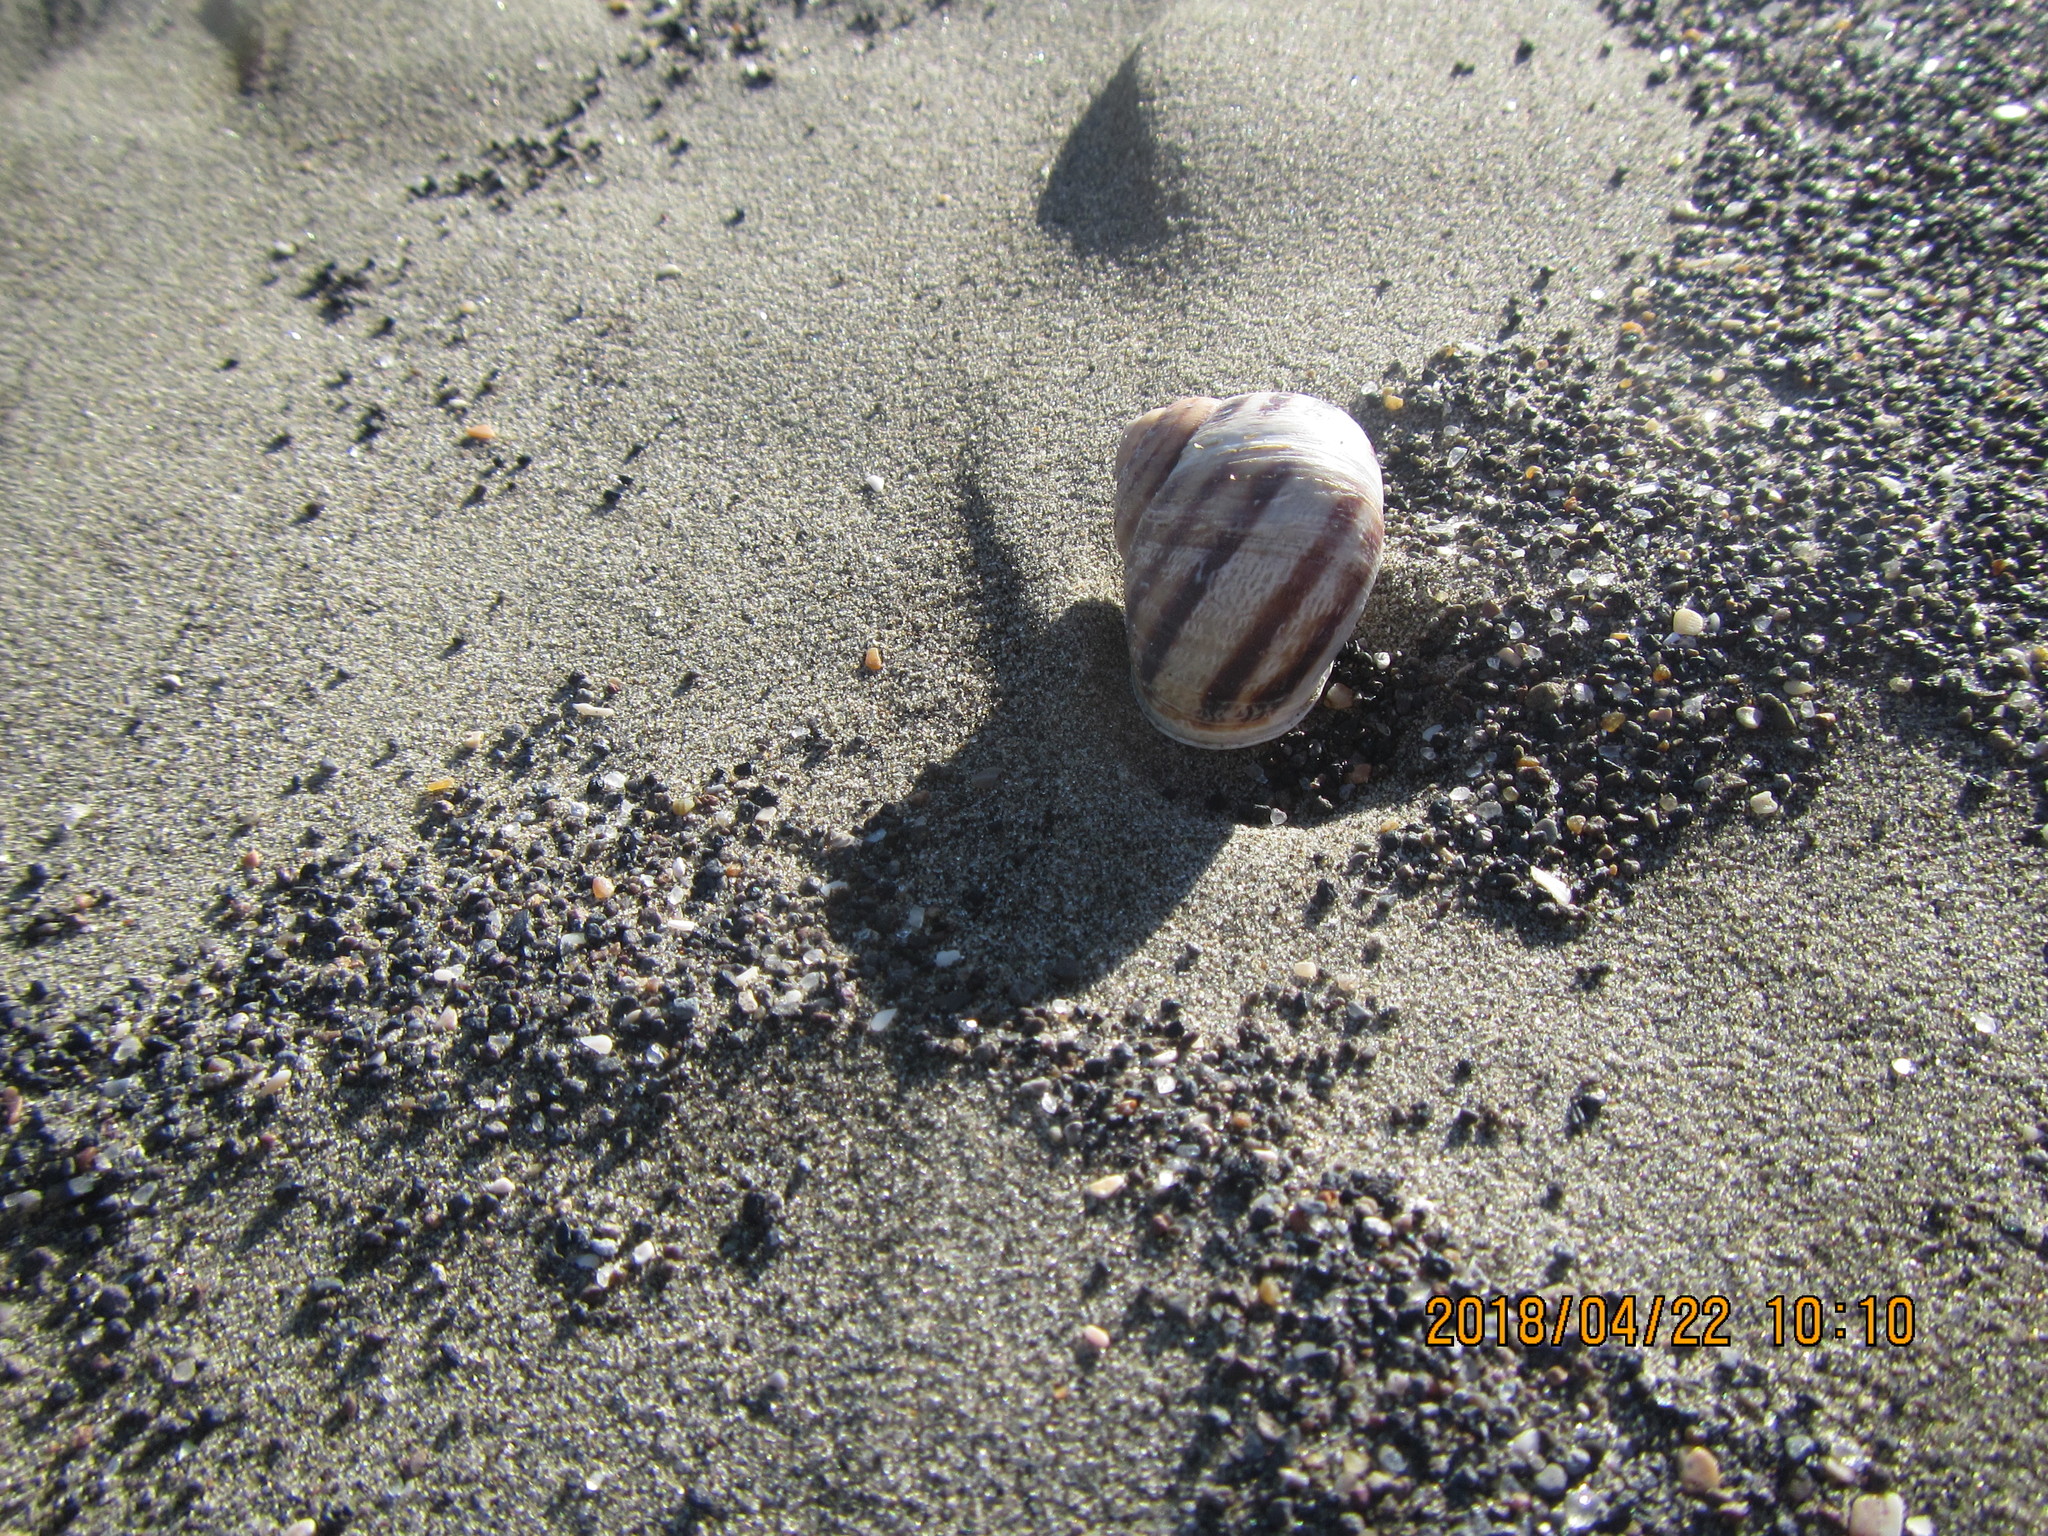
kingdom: Animalia
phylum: Mollusca
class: Gastropoda
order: Stylommatophora
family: Helicidae
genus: Cornu
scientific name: Cornu aspersum
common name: Brown garden snail
